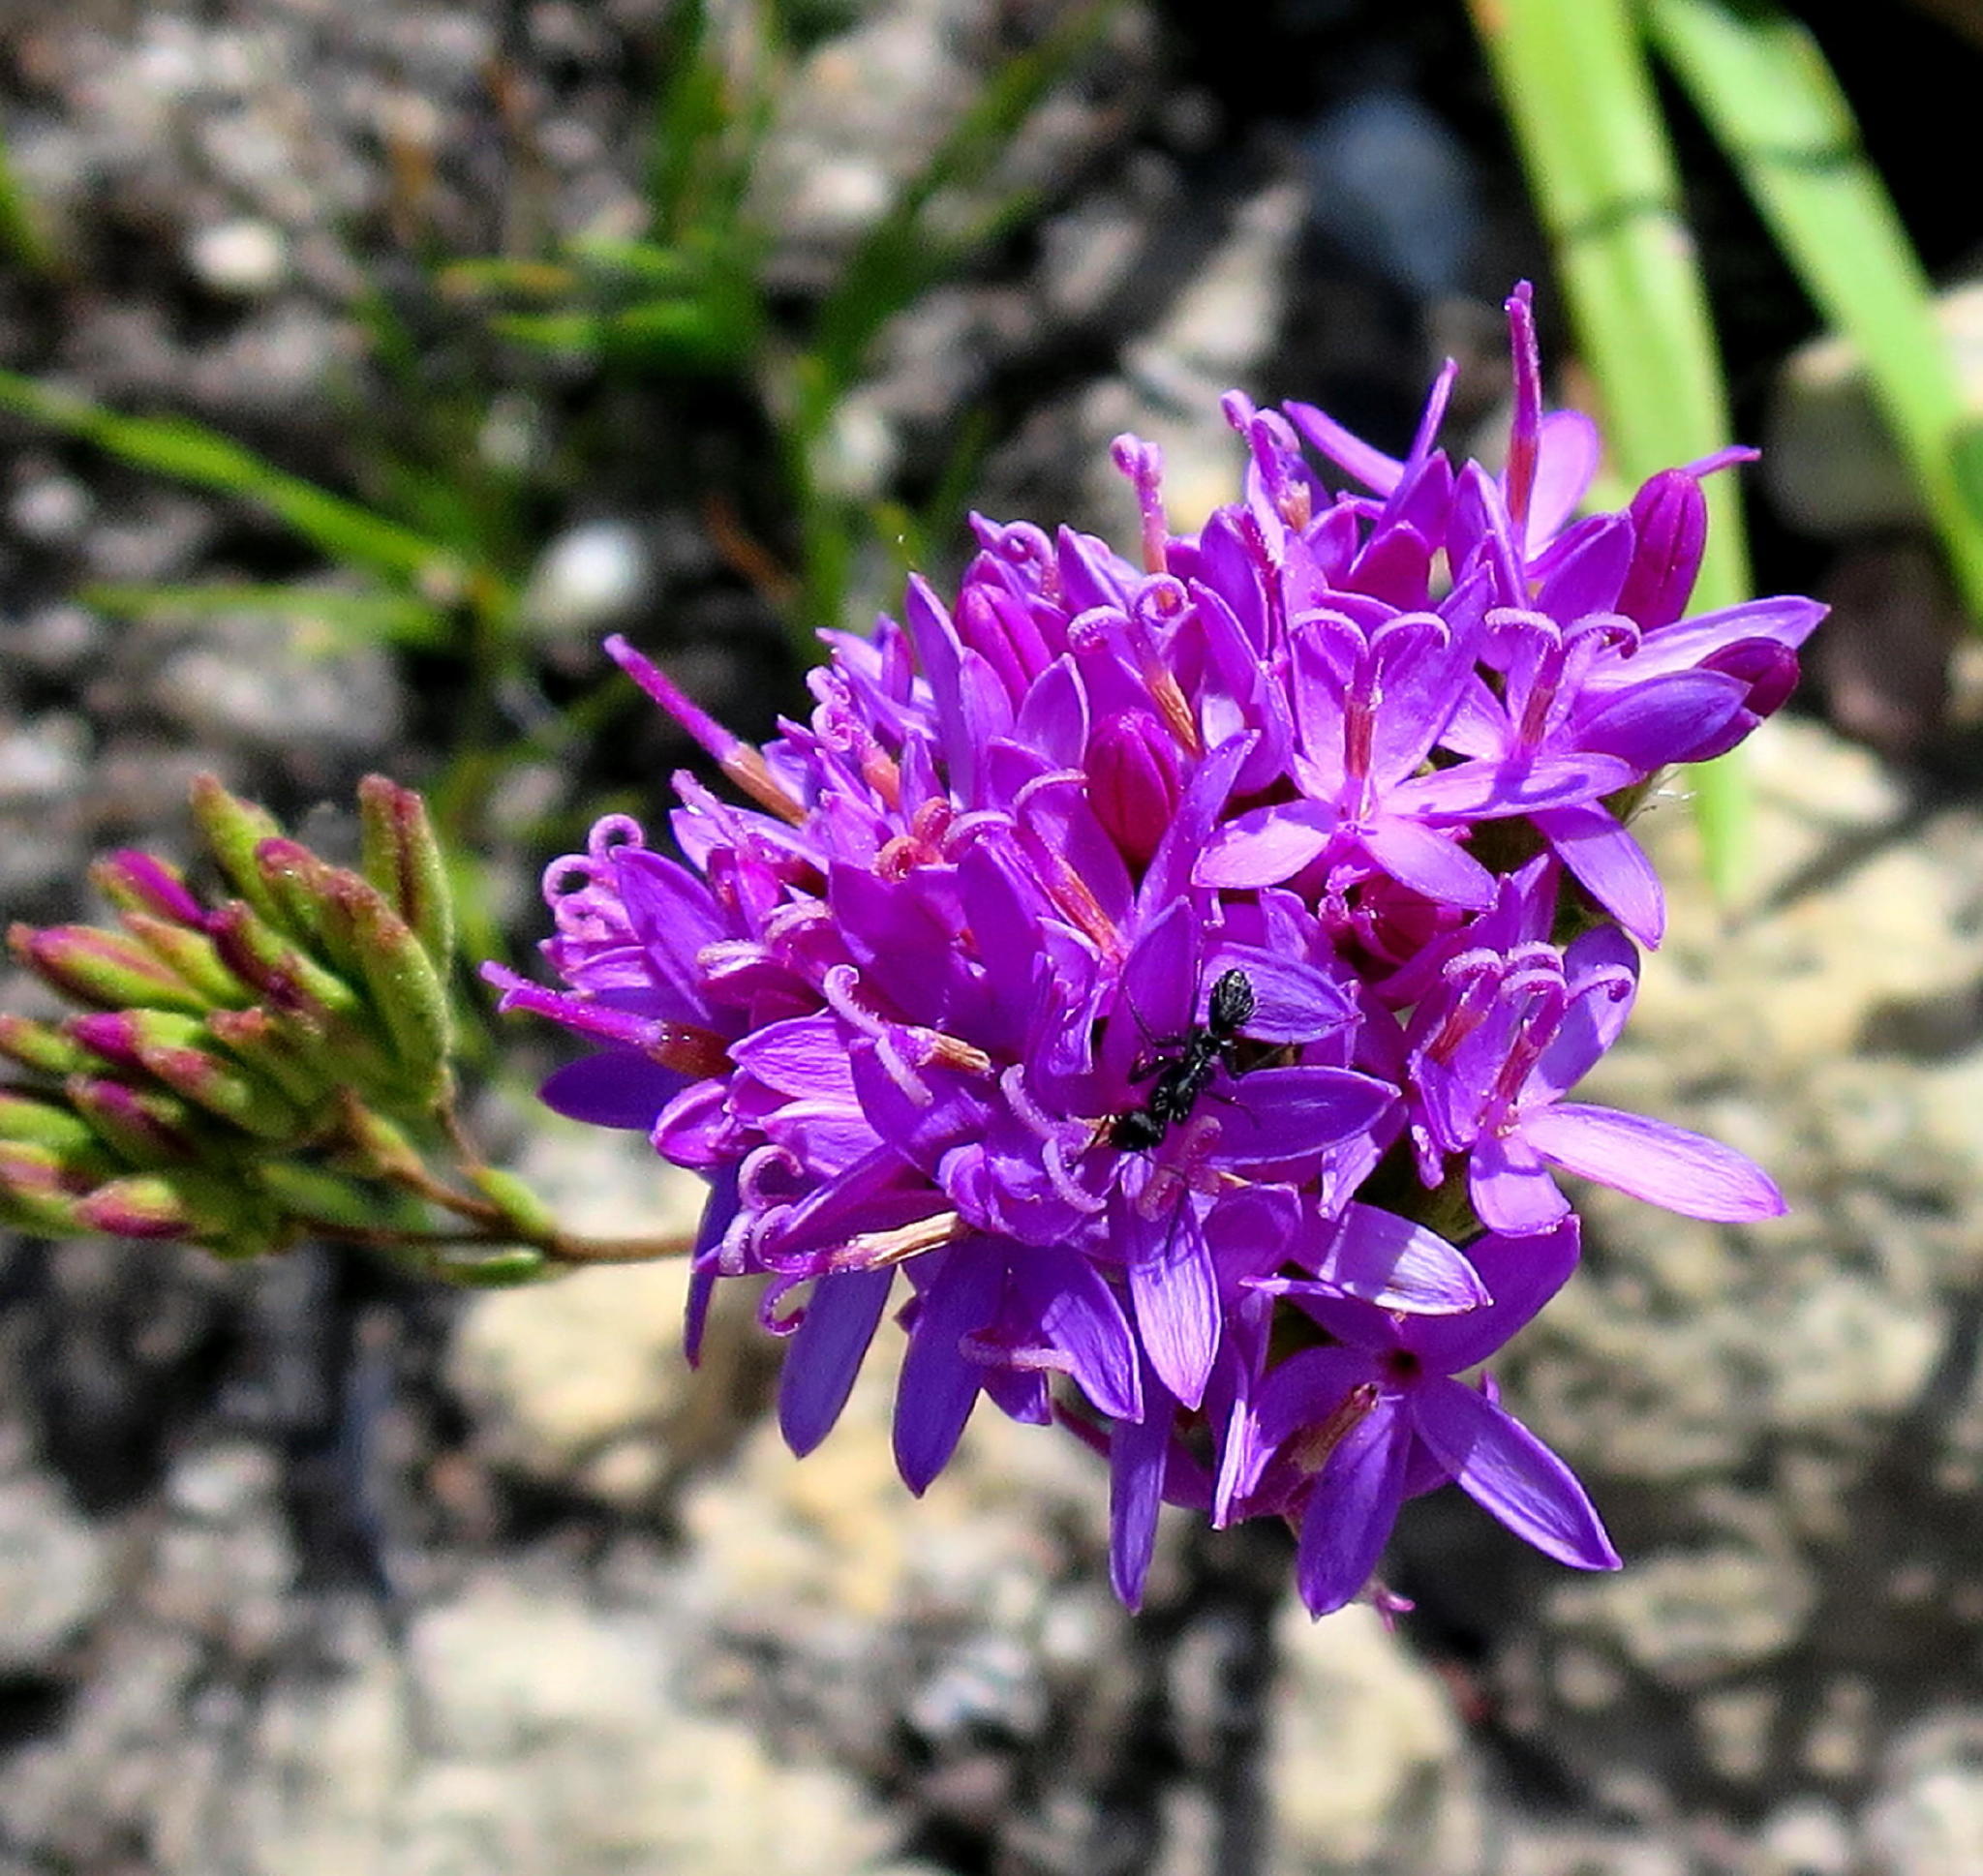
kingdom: Plantae
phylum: Tracheophyta
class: Magnoliopsida
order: Asterales
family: Asteraceae
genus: Corymbium
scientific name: Corymbium africanum
